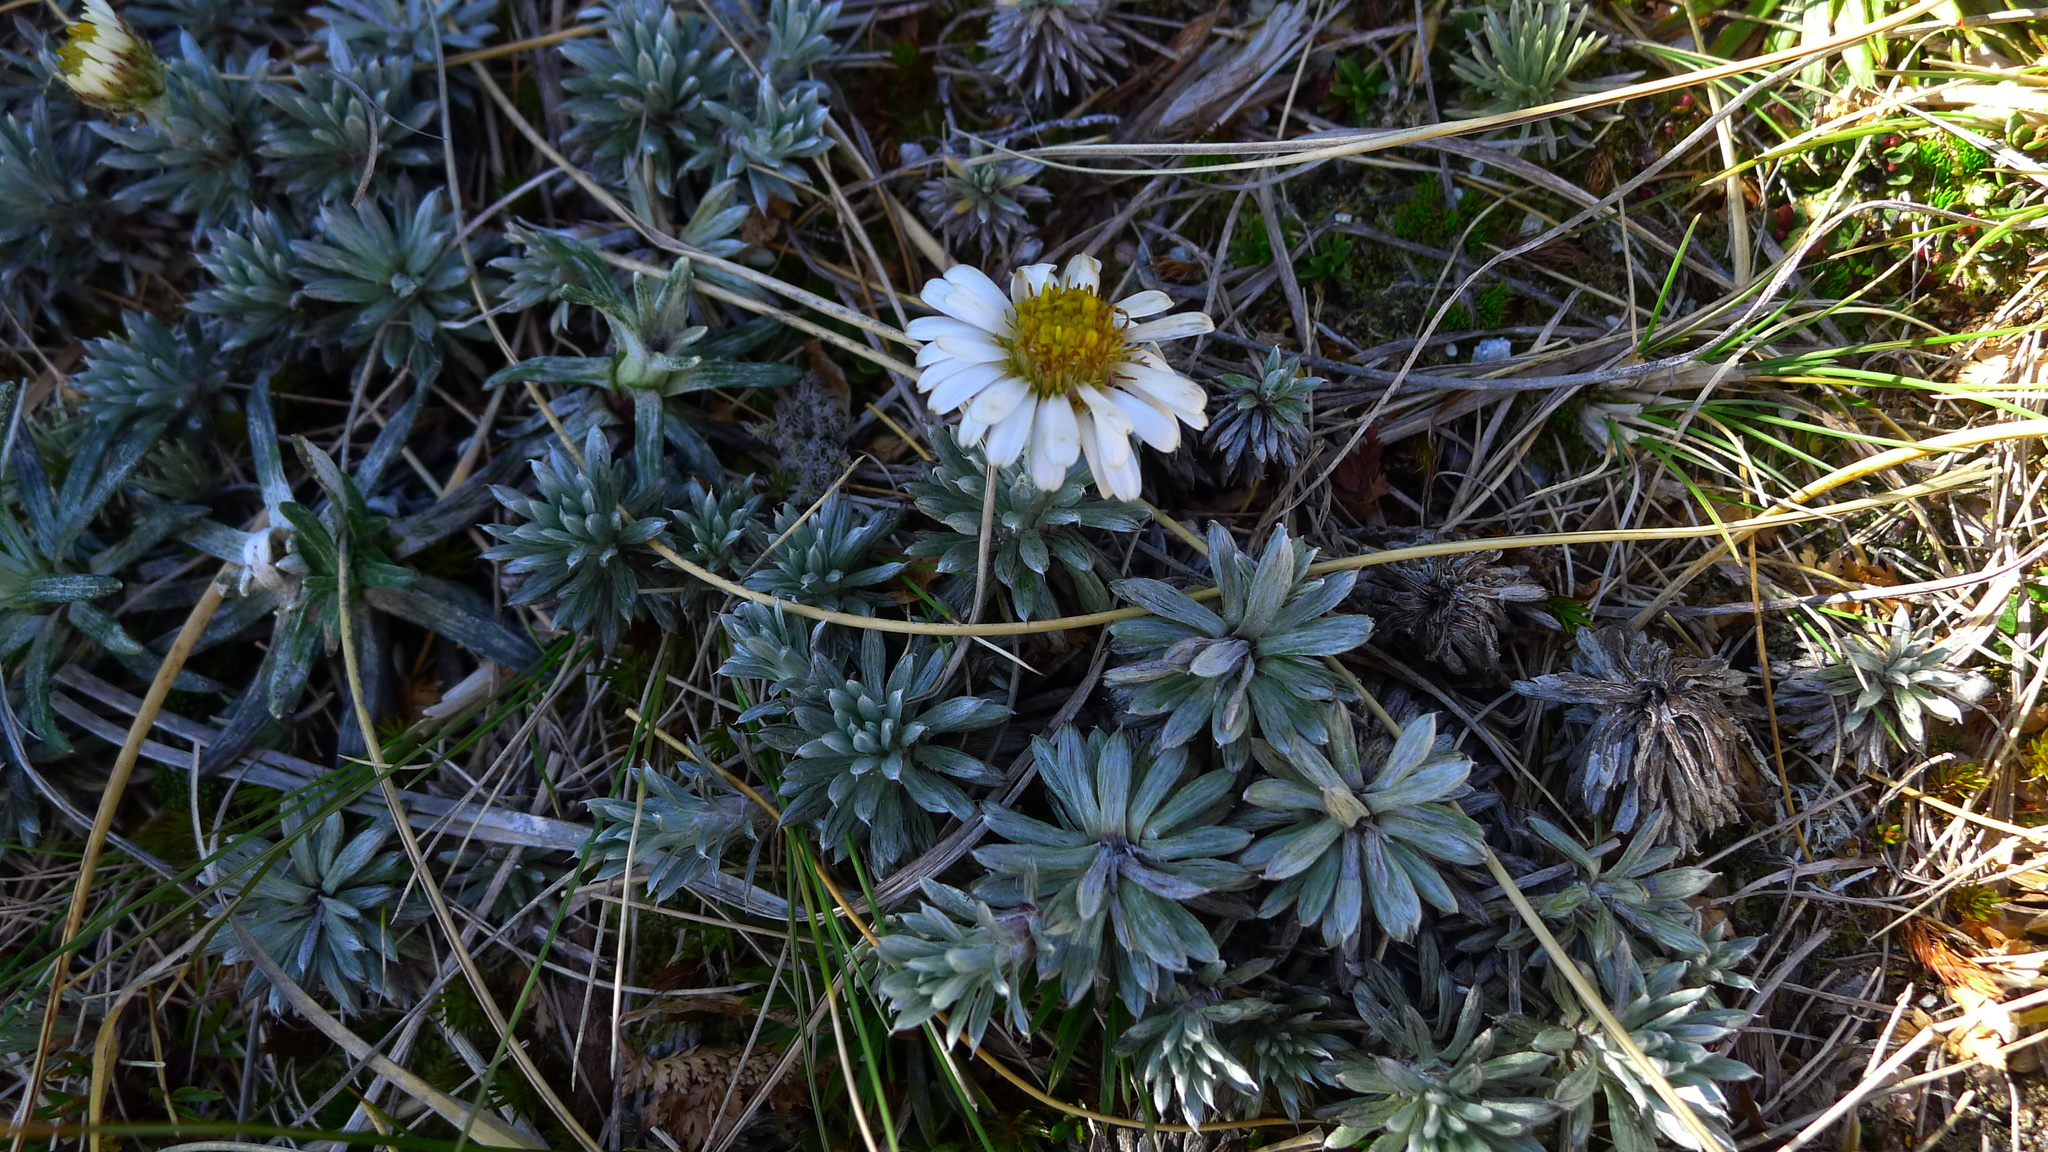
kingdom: Plantae
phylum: Tracheophyta
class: Magnoliopsida
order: Asterales
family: Asteraceae
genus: Celmisia
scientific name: Celmisia hectorii
